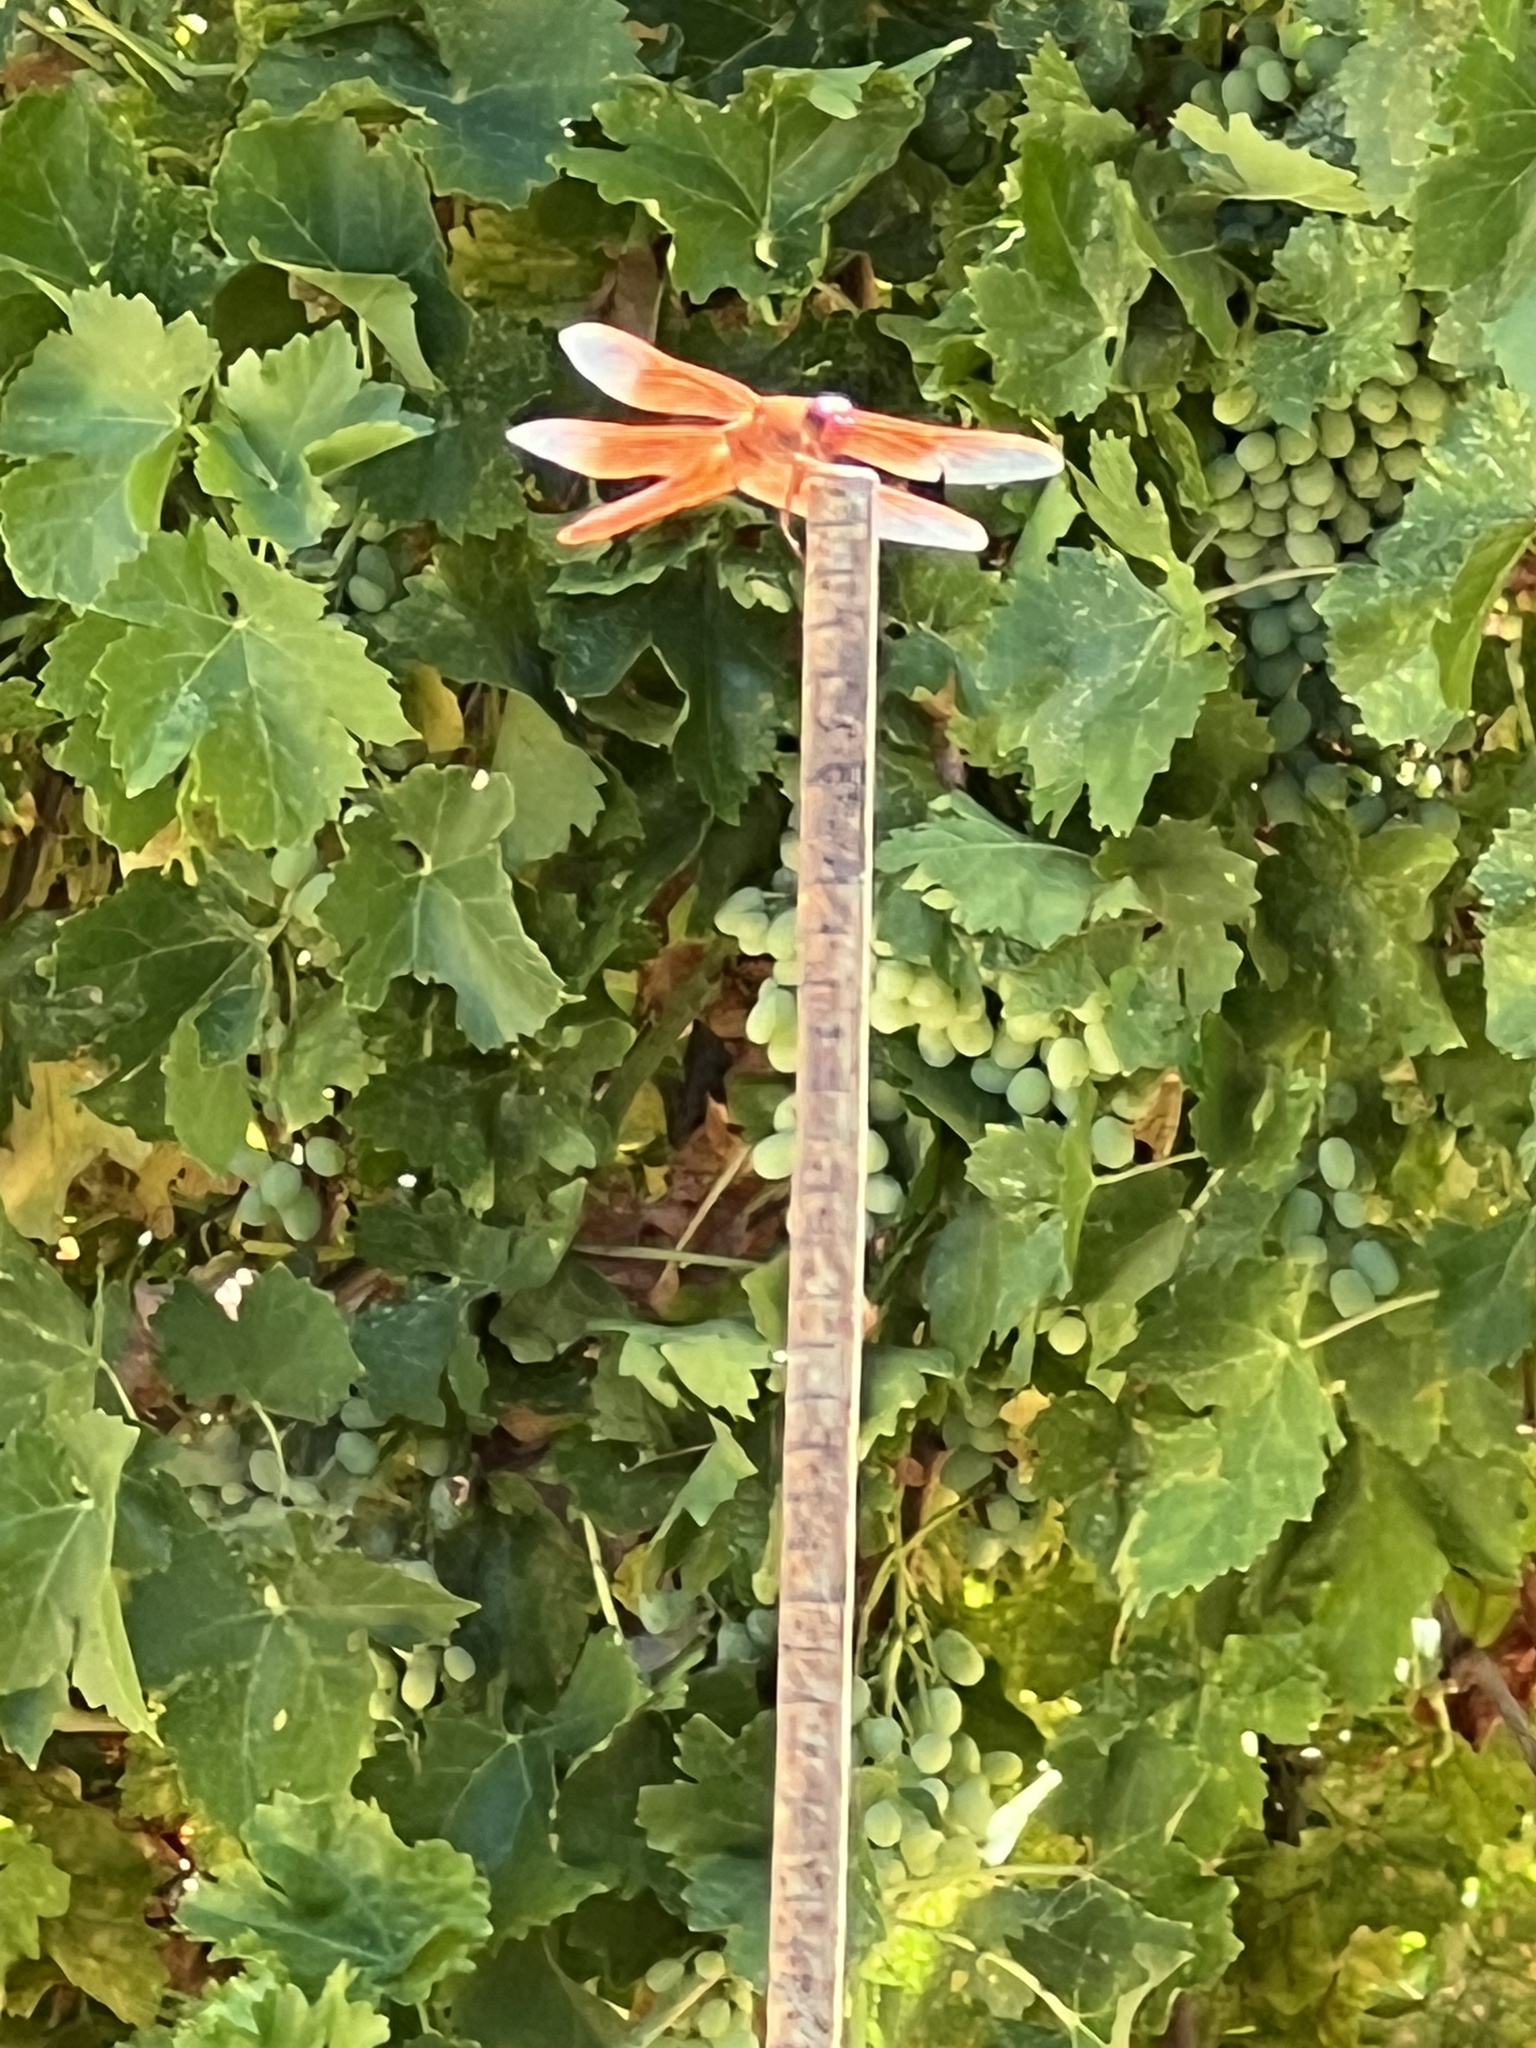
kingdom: Animalia
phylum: Arthropoda
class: Insecta
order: Odonata
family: Libellulidae
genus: Libellula
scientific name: Libellula saturata
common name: Flame skimmer
